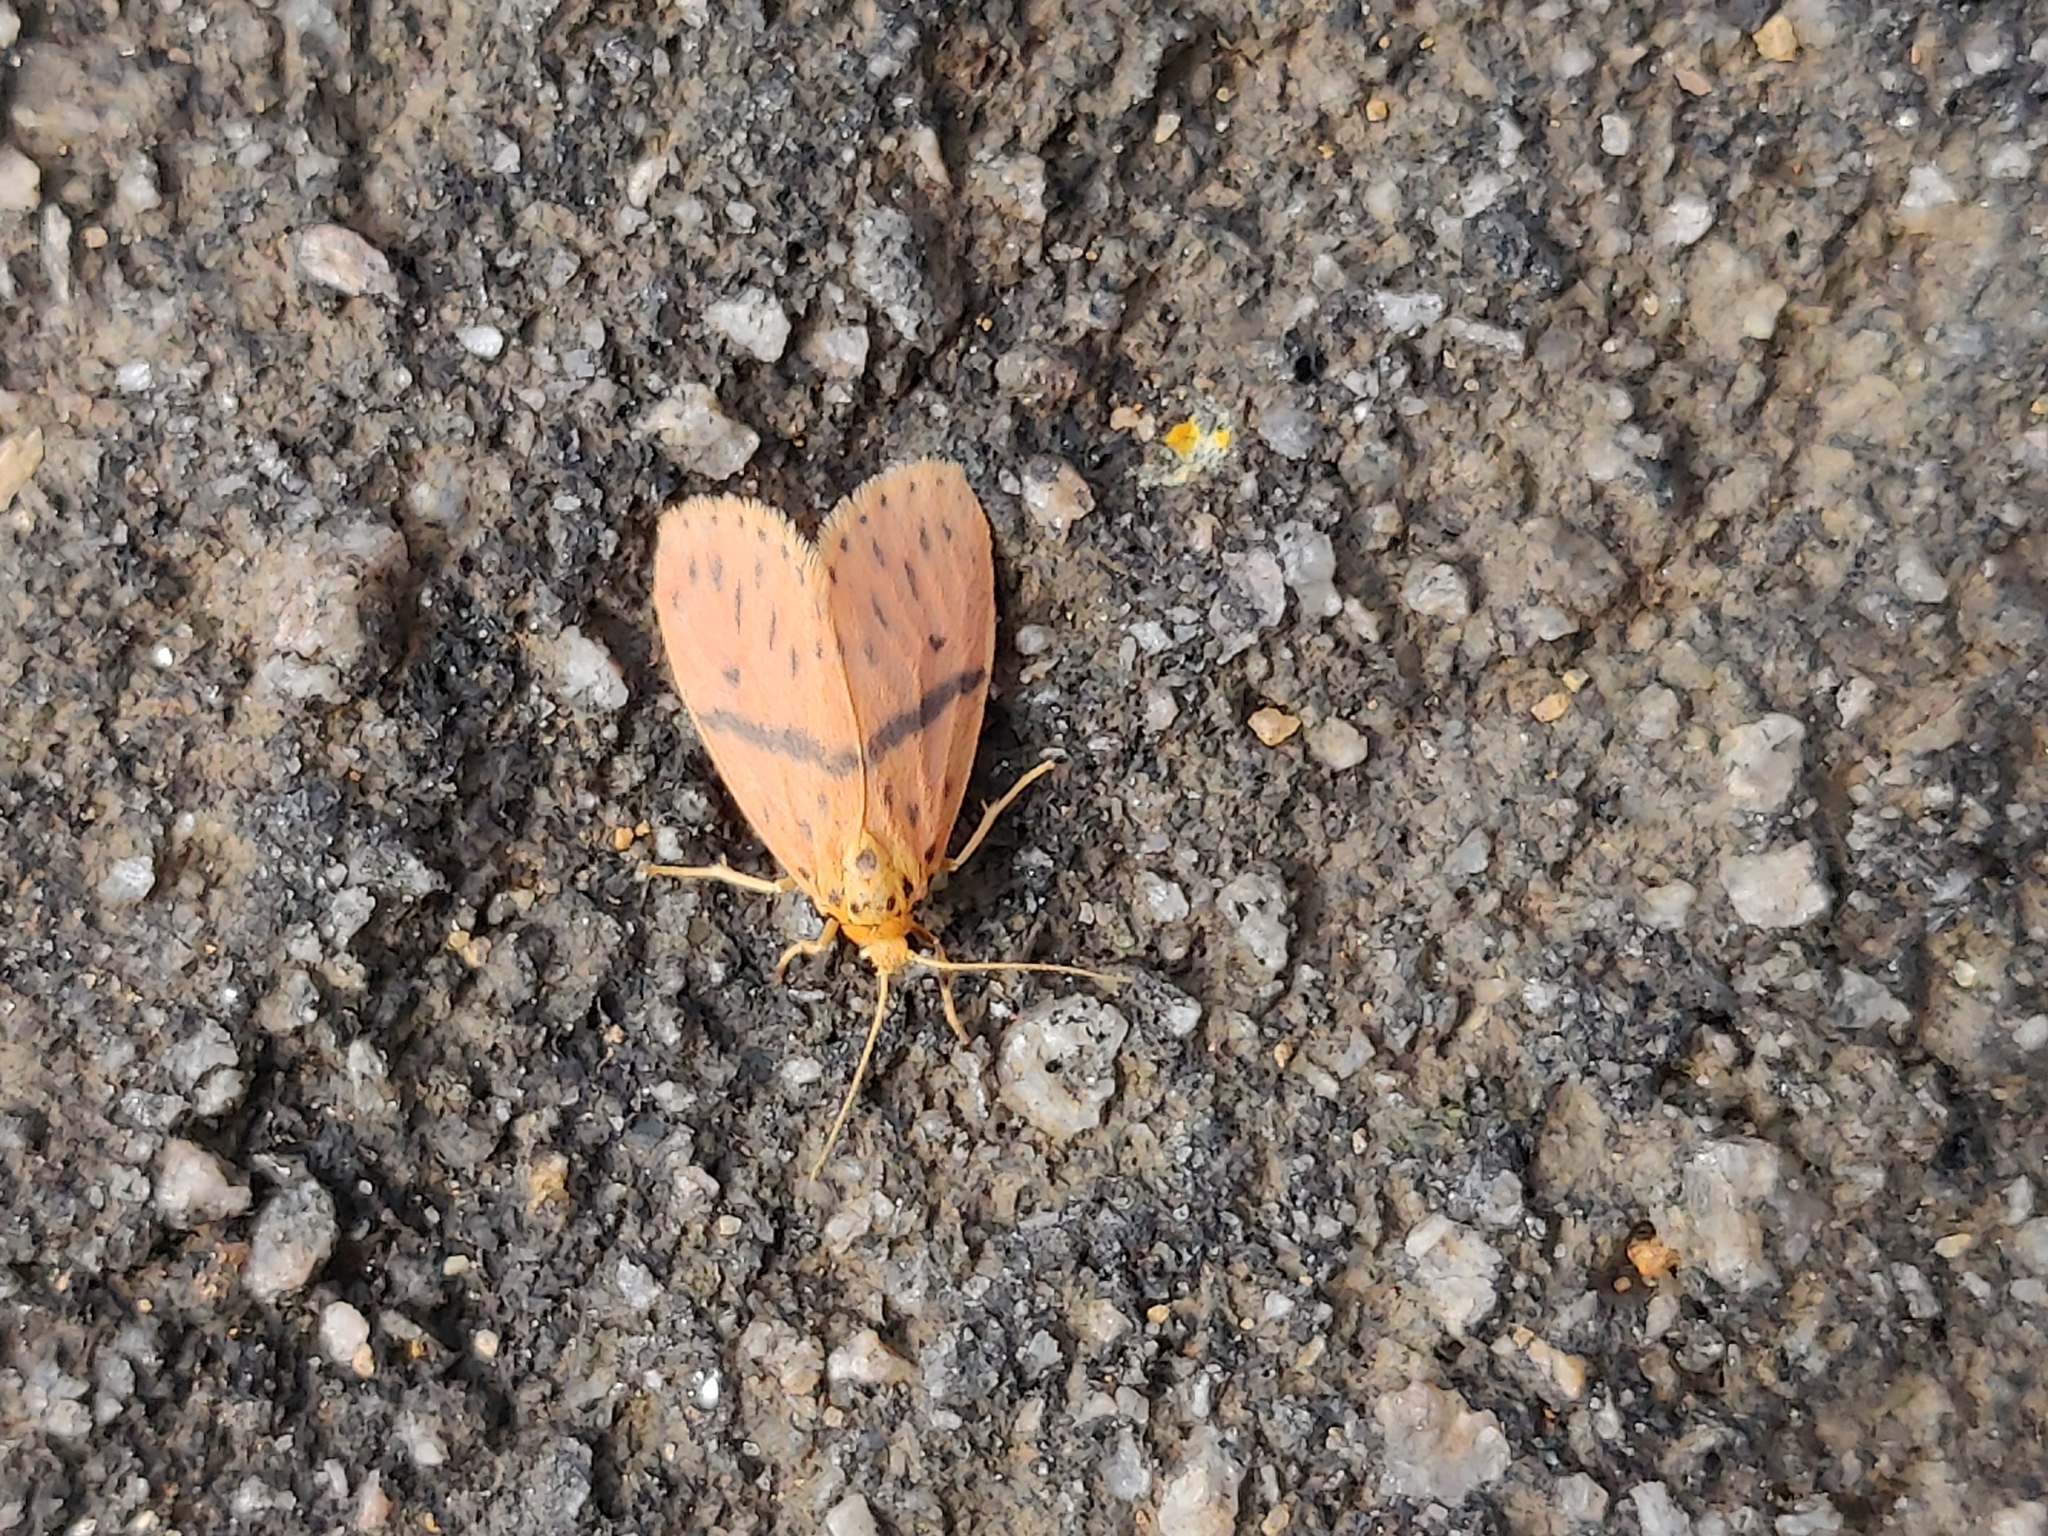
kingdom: Animalia
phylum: Arthropoda
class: Insecta
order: Lepidoptera
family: Erebidae
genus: Arctelene
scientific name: Arctelene arcuata
